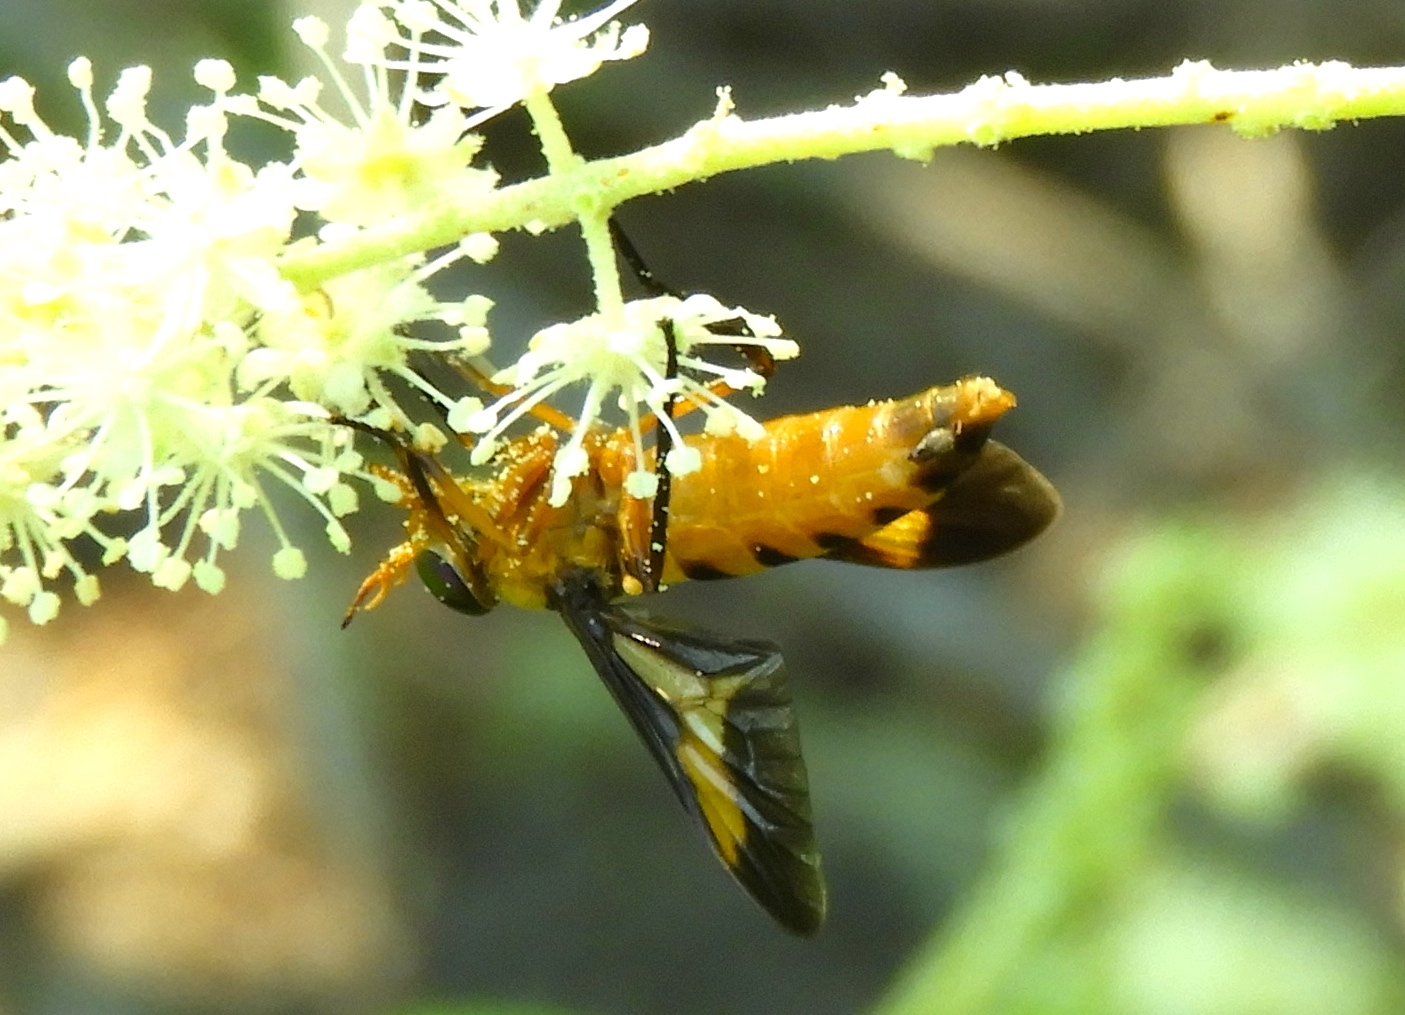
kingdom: Animalia
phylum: Arthropoda
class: Insecta
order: Diptera
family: Tabanidae
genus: Dichelacera
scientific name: Dichelacera
